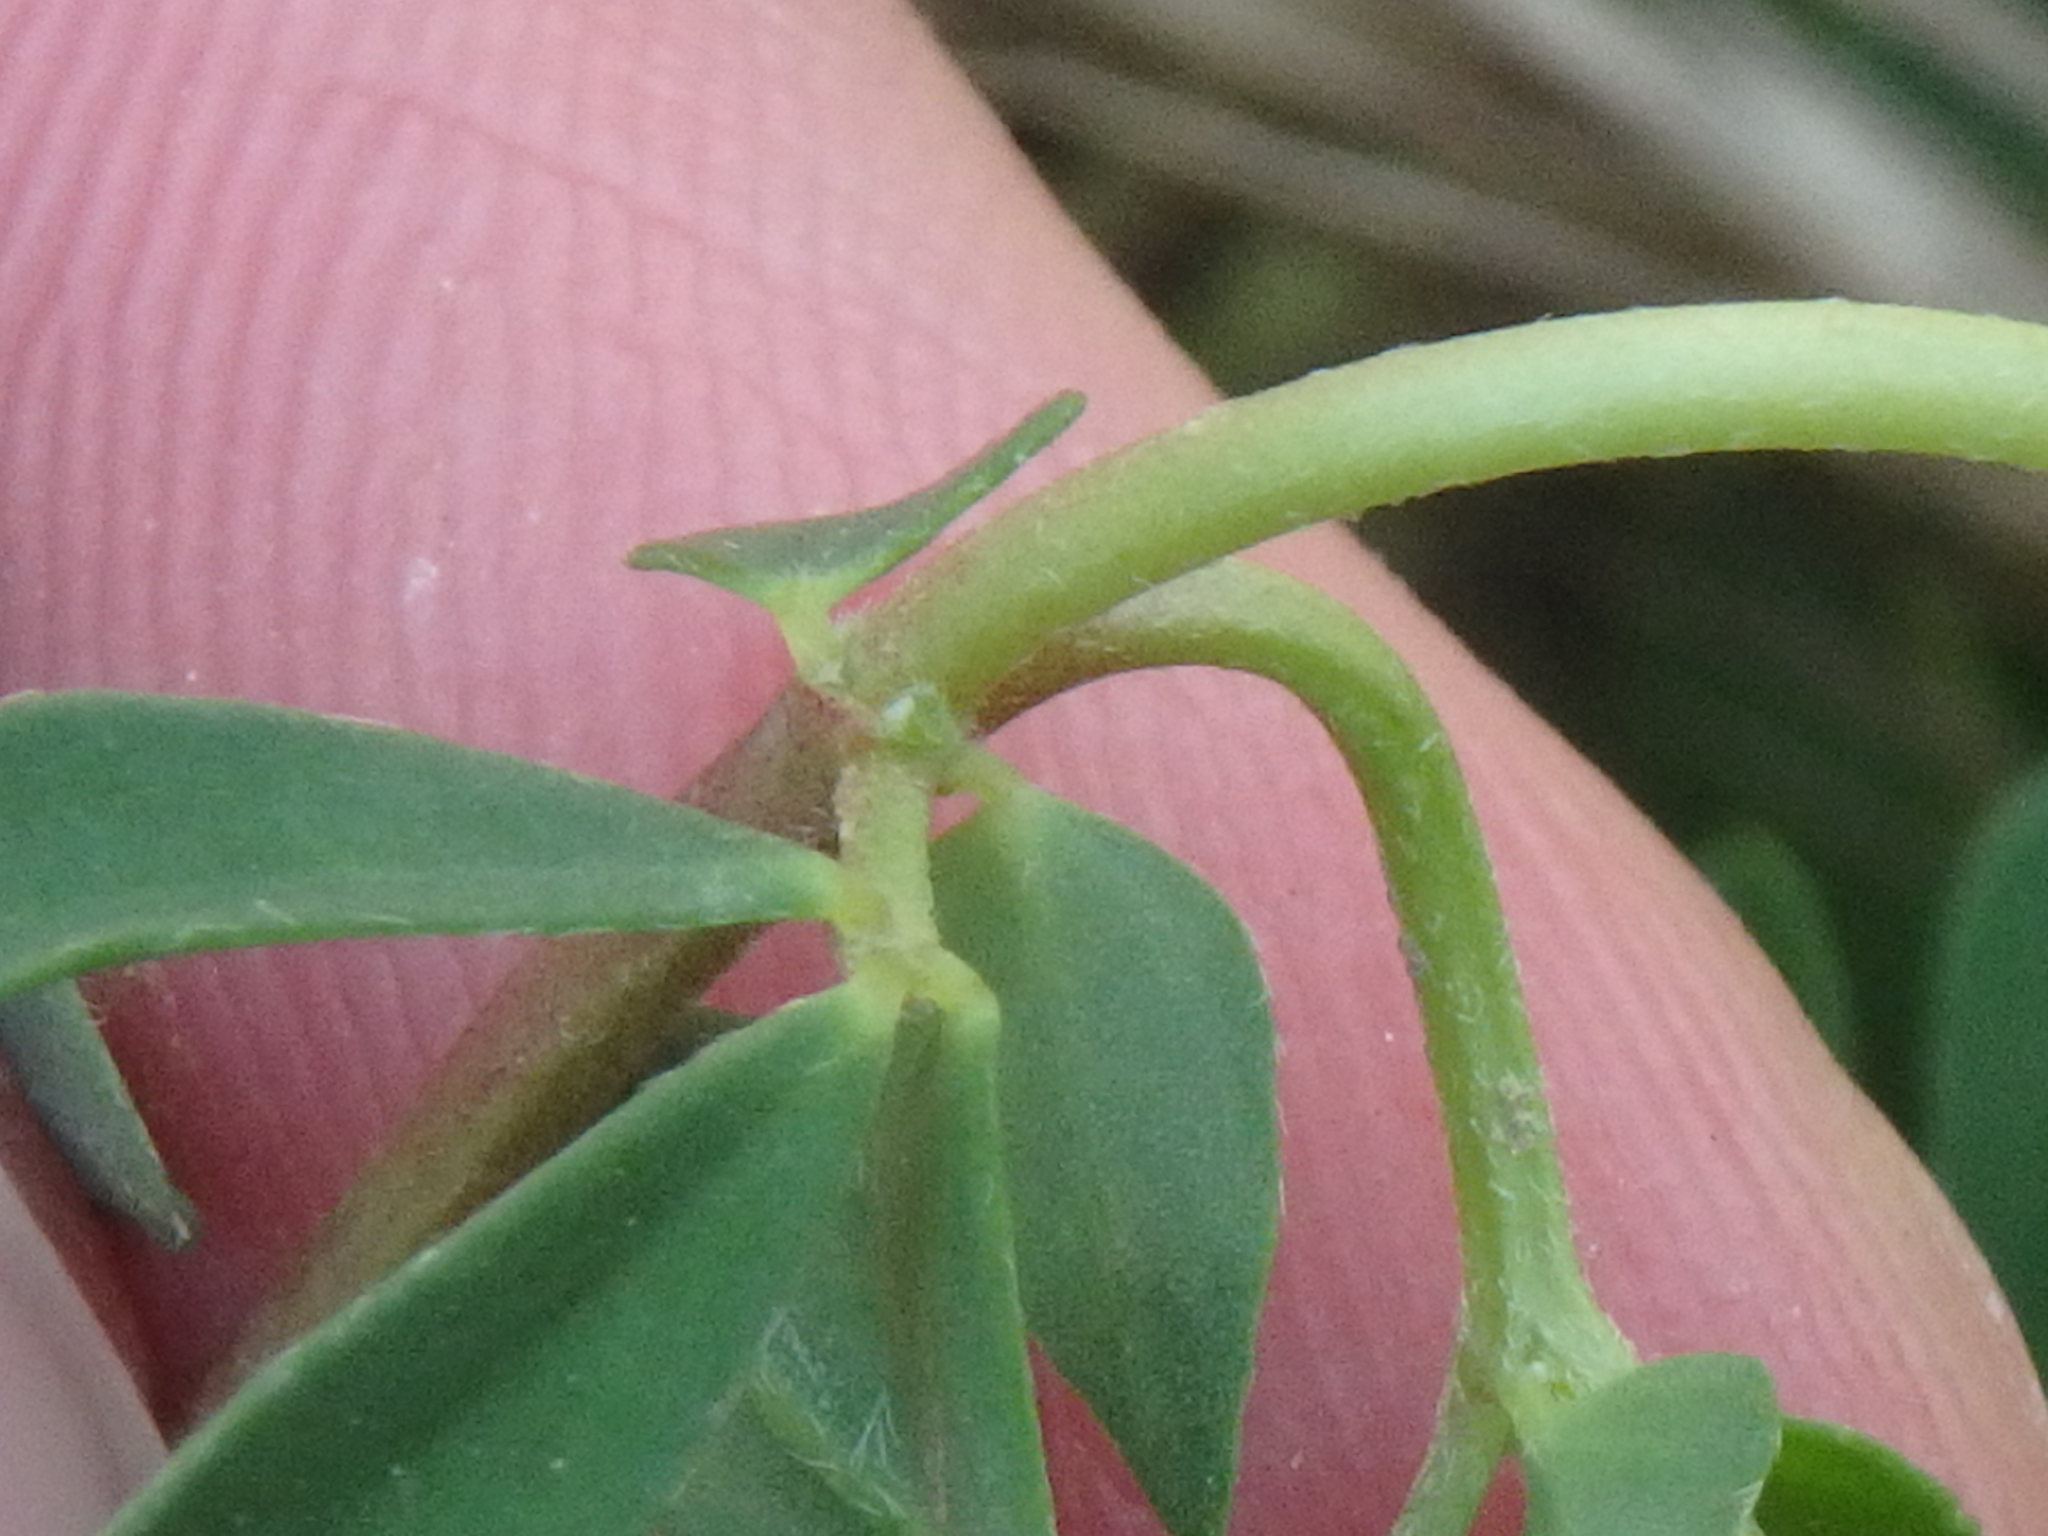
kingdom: Plantae
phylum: Tracheophyta
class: Magnoliopsida
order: Fabales
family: Fabaceae
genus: Lotus
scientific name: Lotus corniculatus
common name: Common bird's-foot-trefoil
